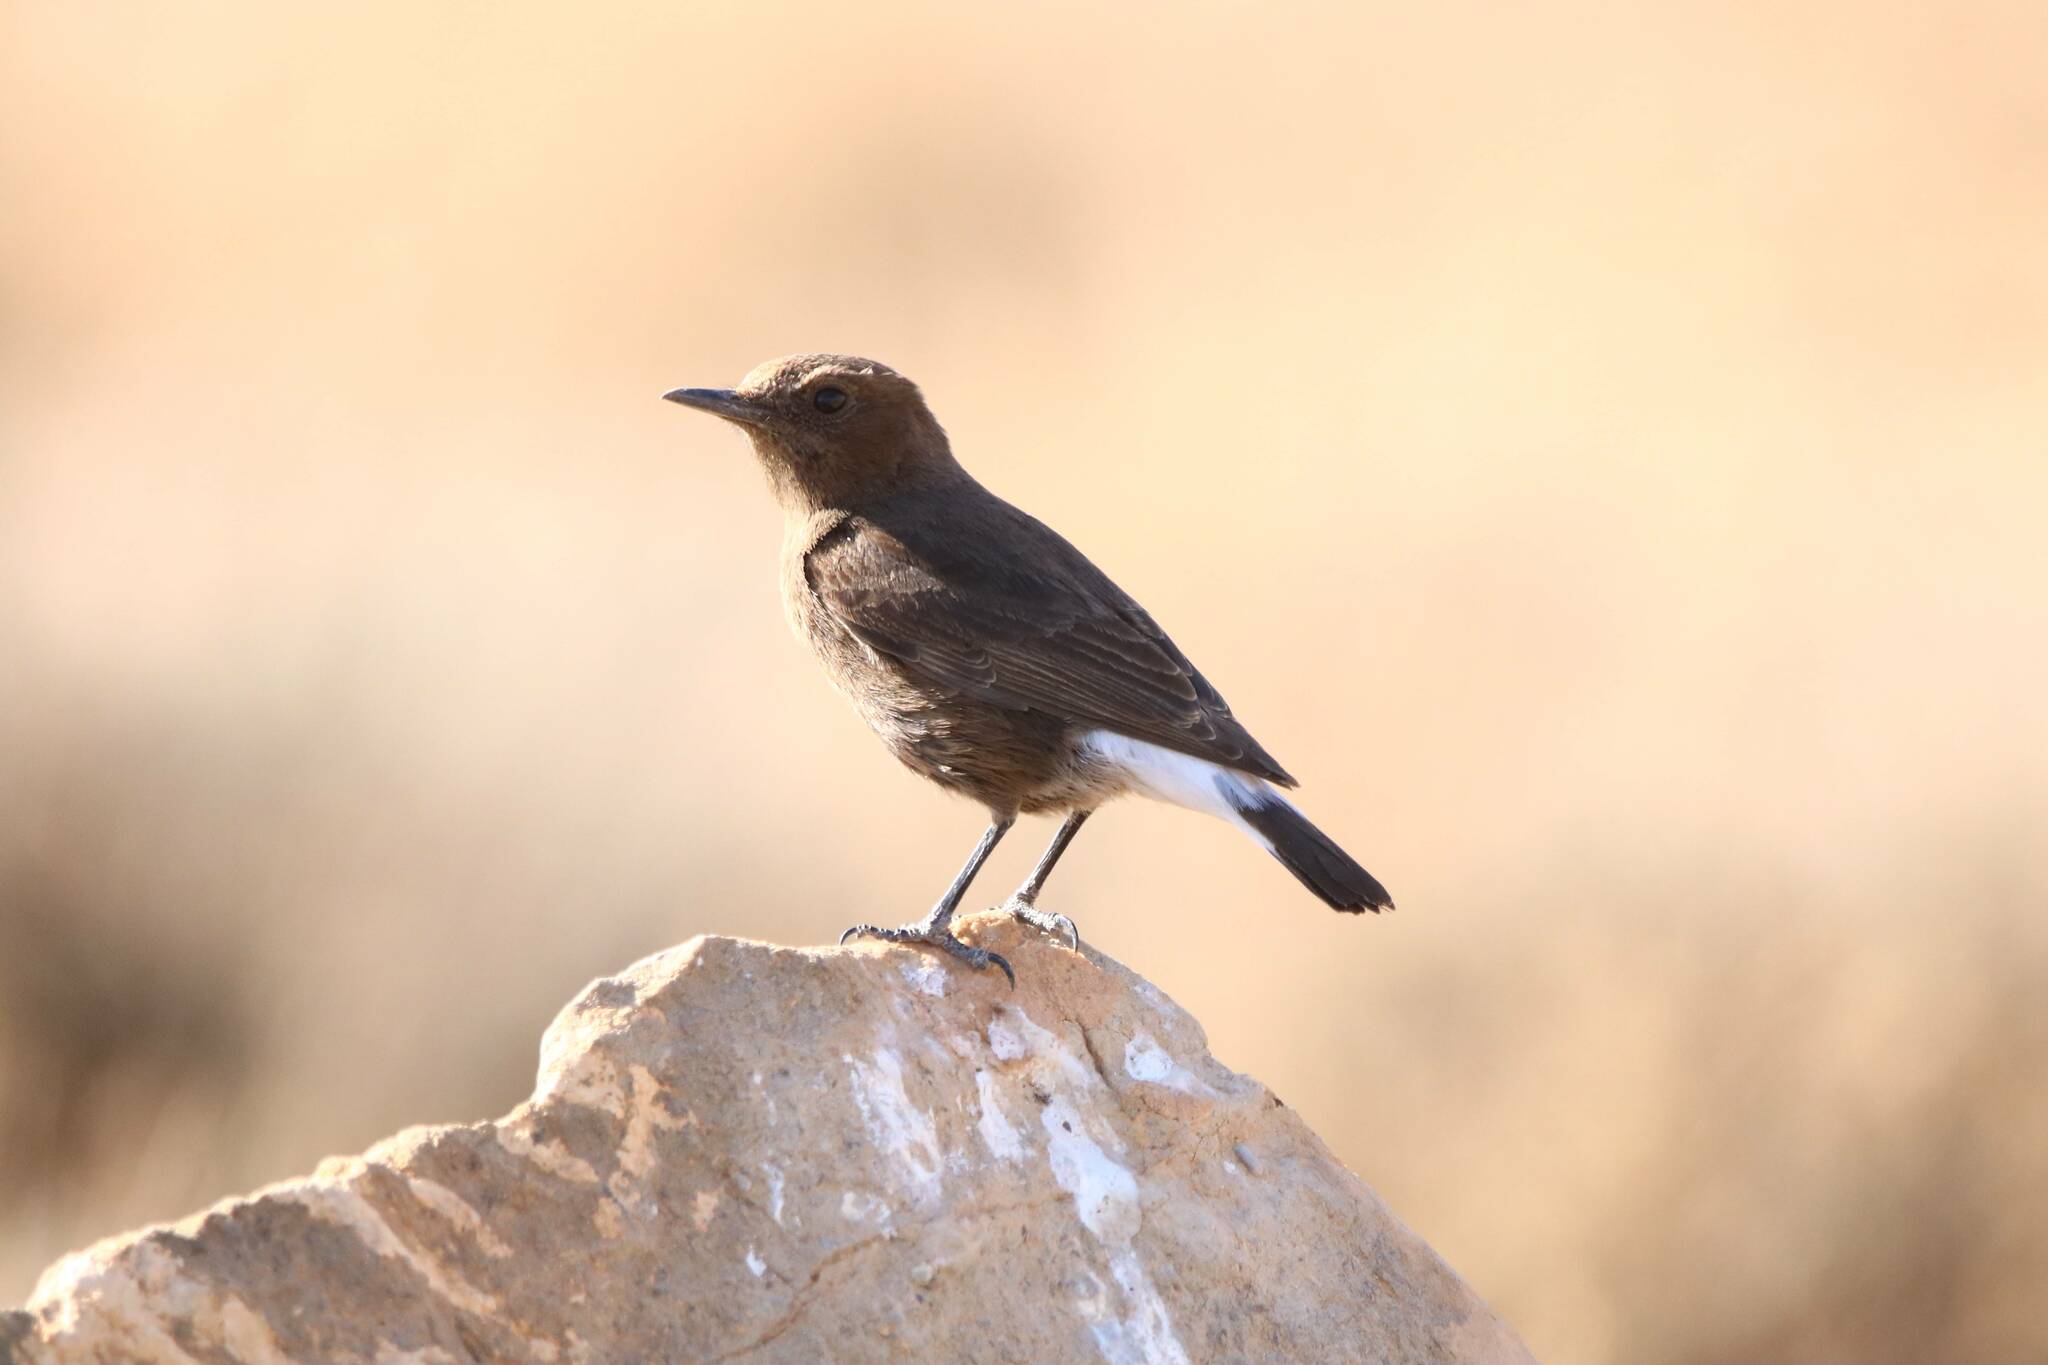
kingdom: Animalia
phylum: Chordata
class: Aves
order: Passeriformes
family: Muscicapidae
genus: Oenanthe
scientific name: Oenanthe leucura
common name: Black wheatear
